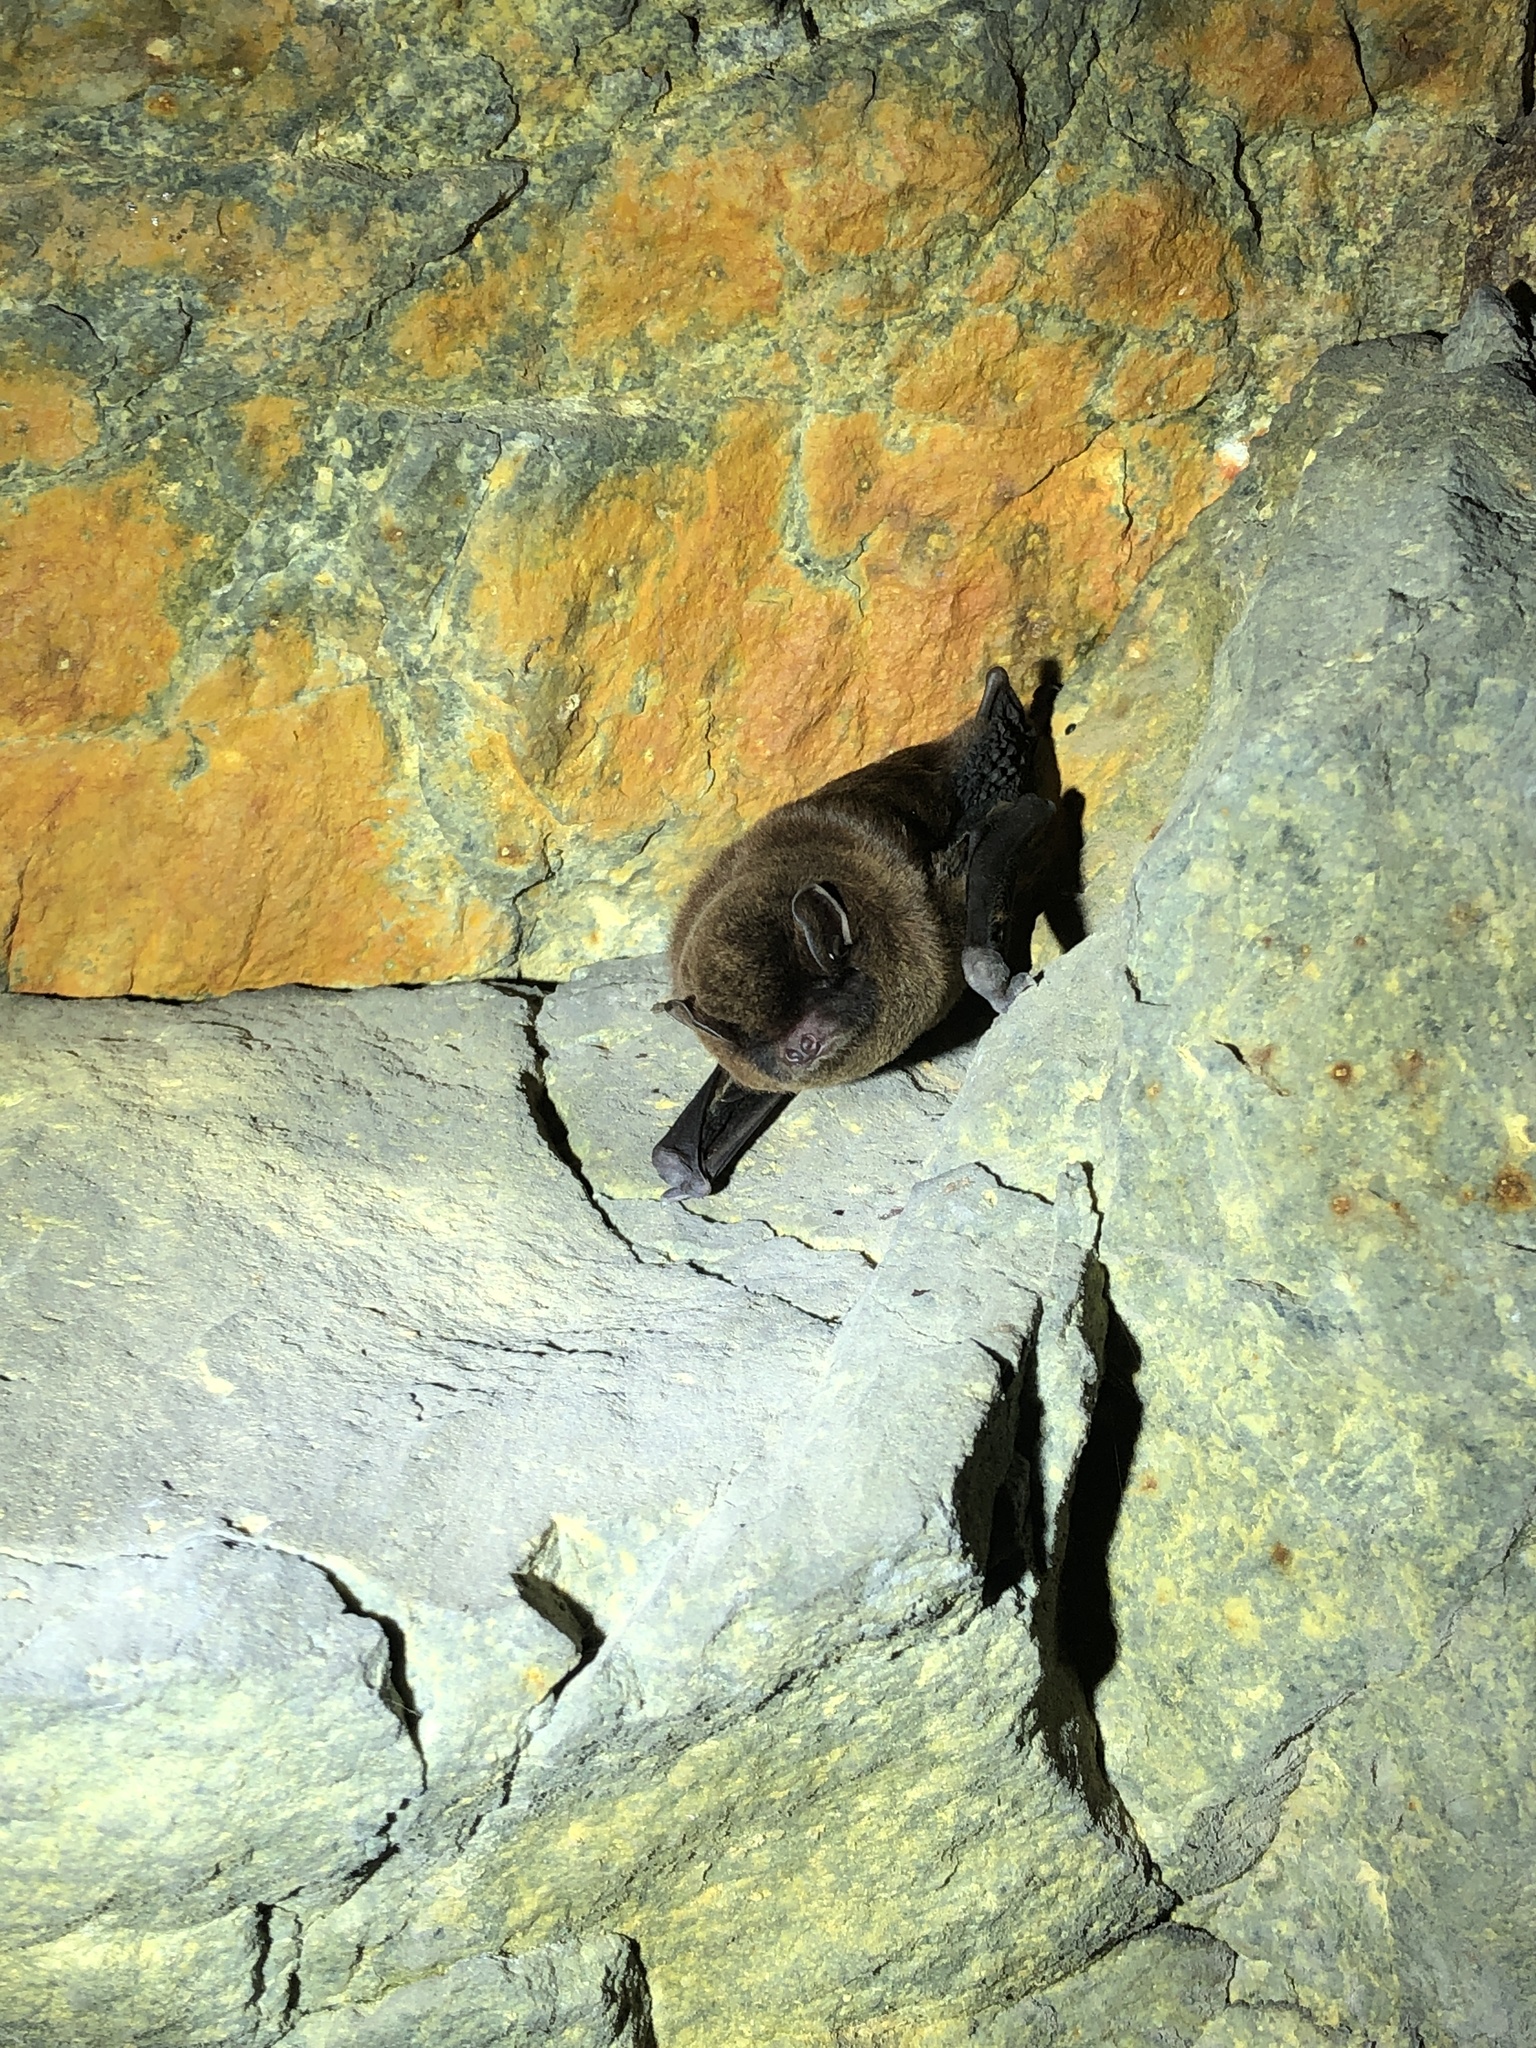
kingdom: Animalia
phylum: Chordata
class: Mammalia
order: Chiroptera
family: Miniopteridae
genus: Miniopterus
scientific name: Miniopterus
